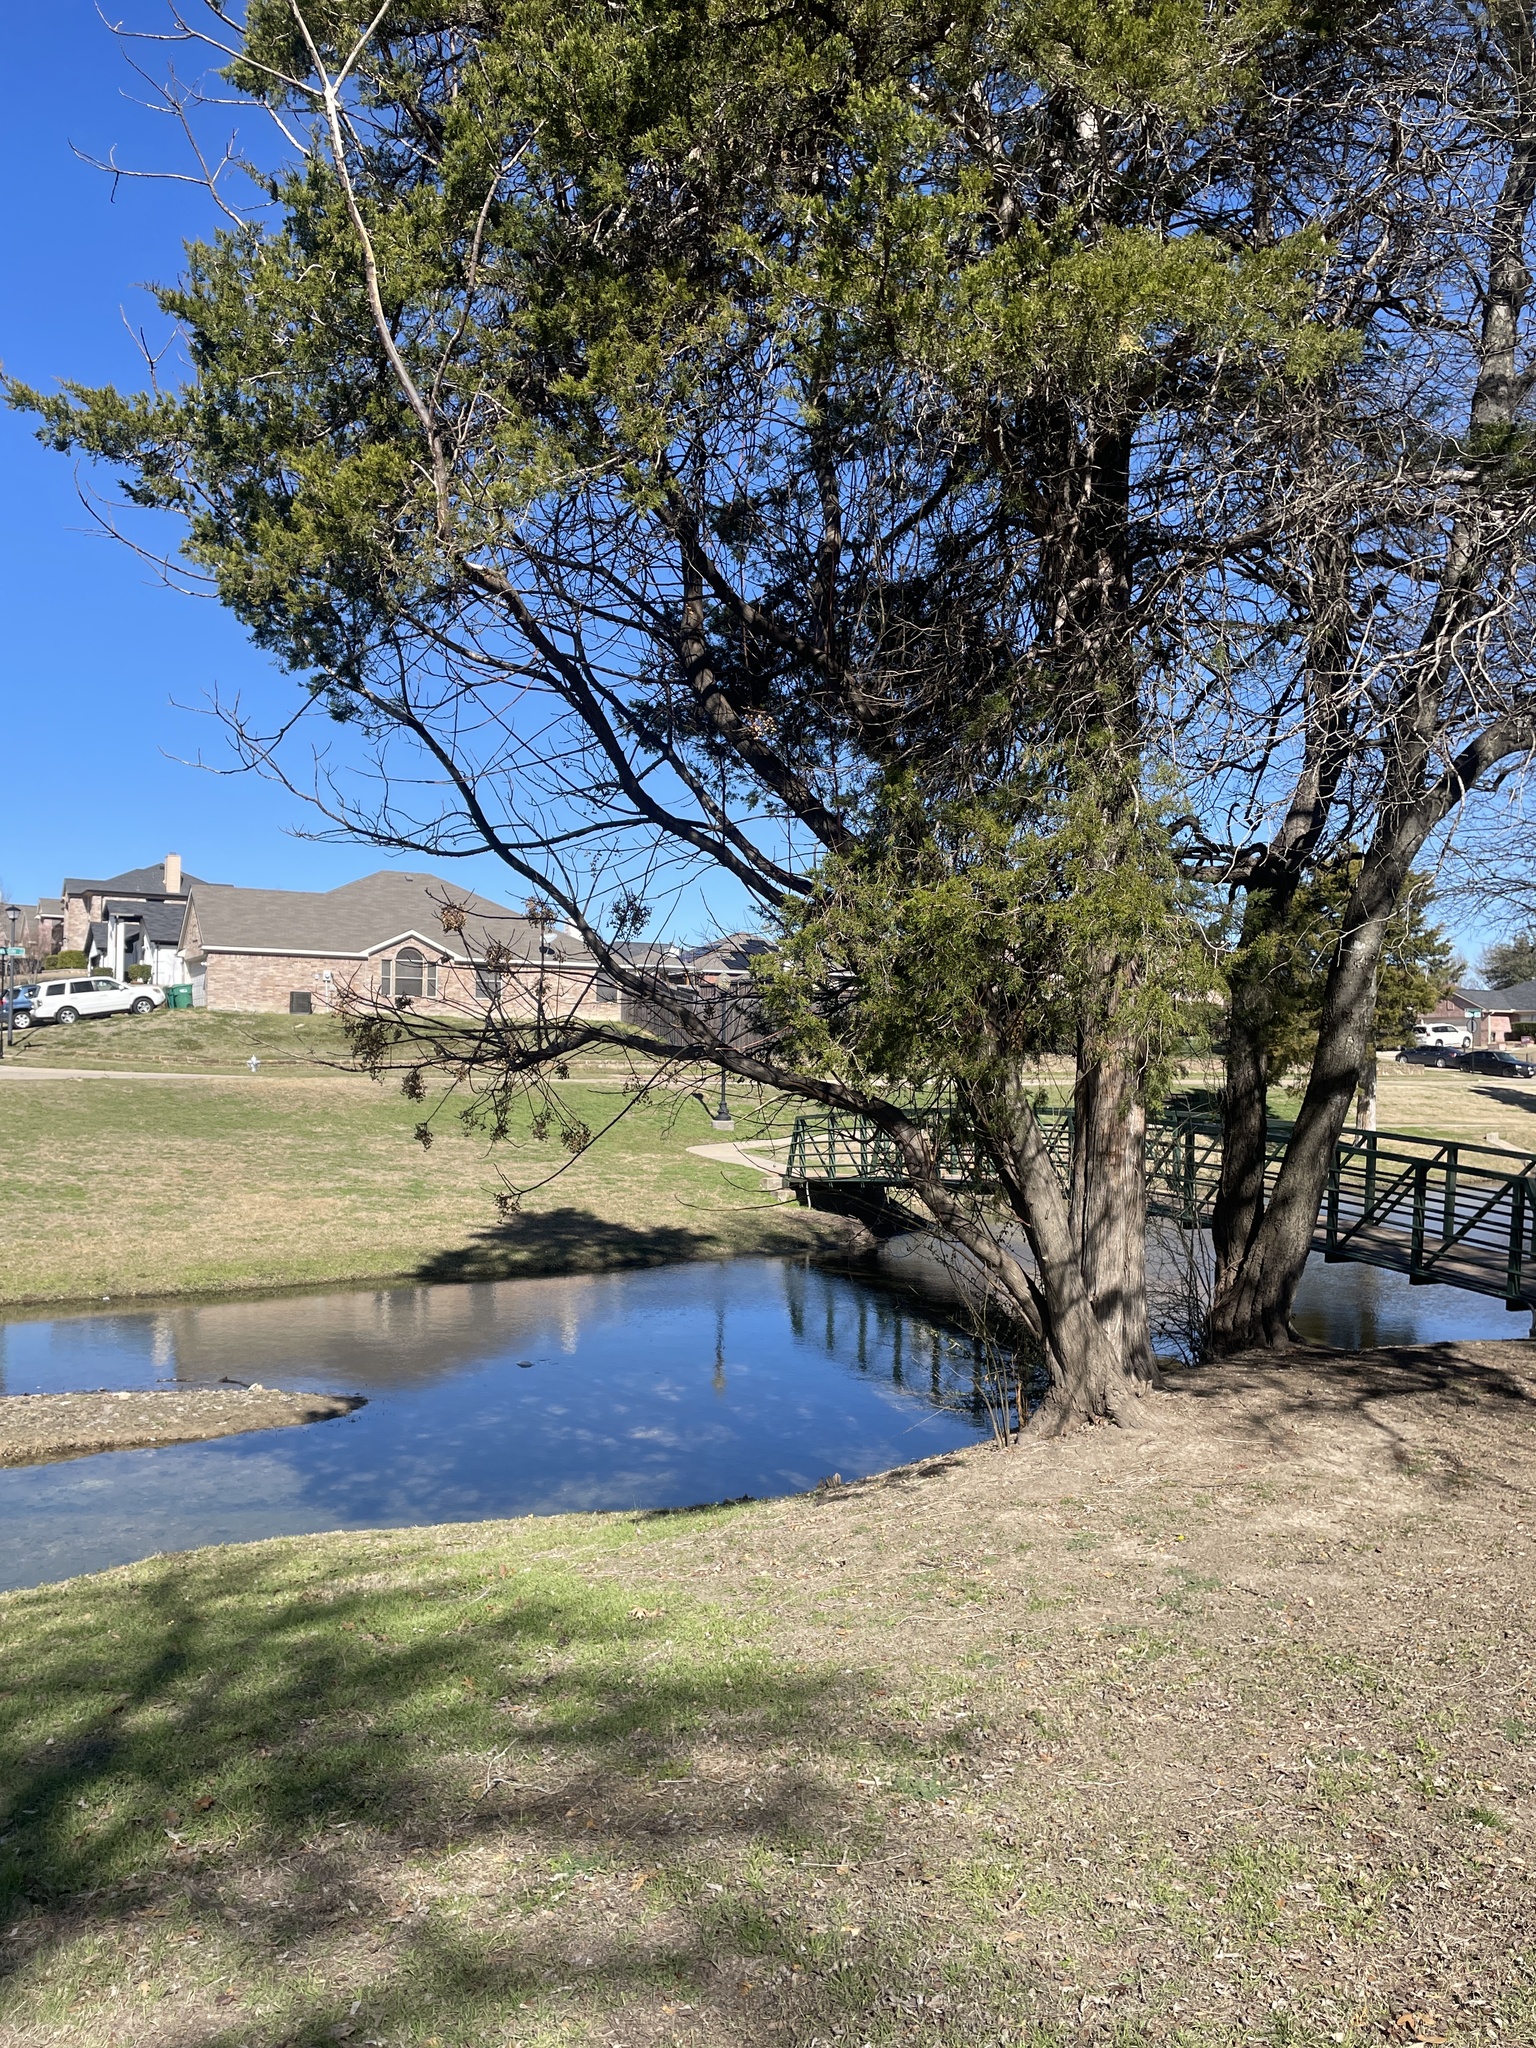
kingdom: Plantae
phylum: Tracheophyta
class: Magnoliopsida
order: Sapindales
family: Meliaceae
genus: Melia
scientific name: Melia azedarach
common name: Chinaberrytree
